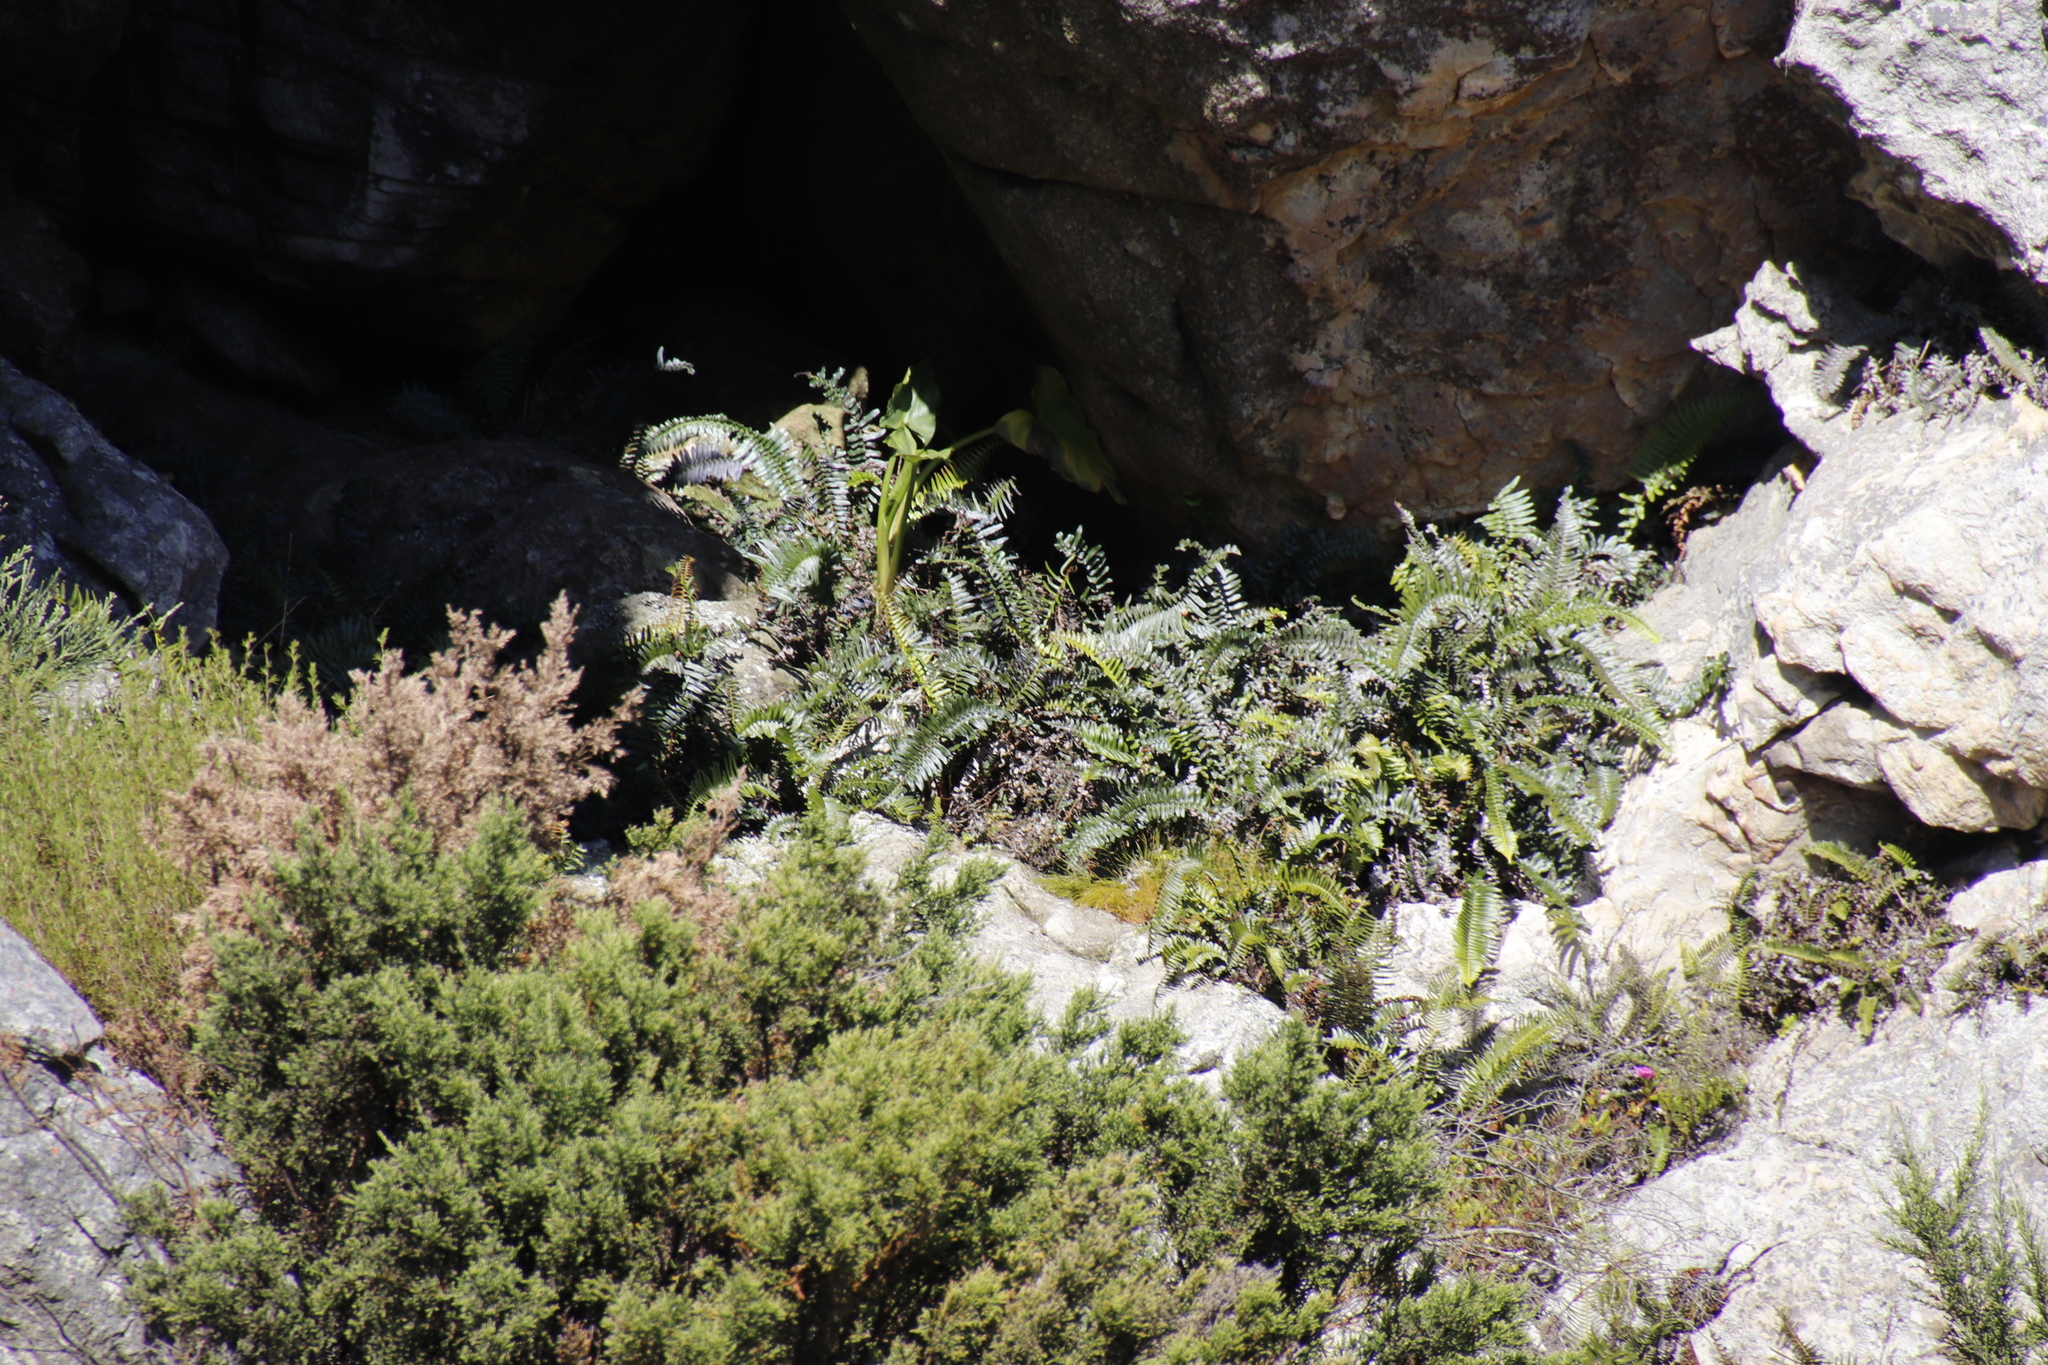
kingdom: Plantae
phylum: Tracheophyta
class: Polypodiopsida
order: Polypodiales
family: Blechnaceae
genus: Blechnum
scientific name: Blechnum punctulatum
